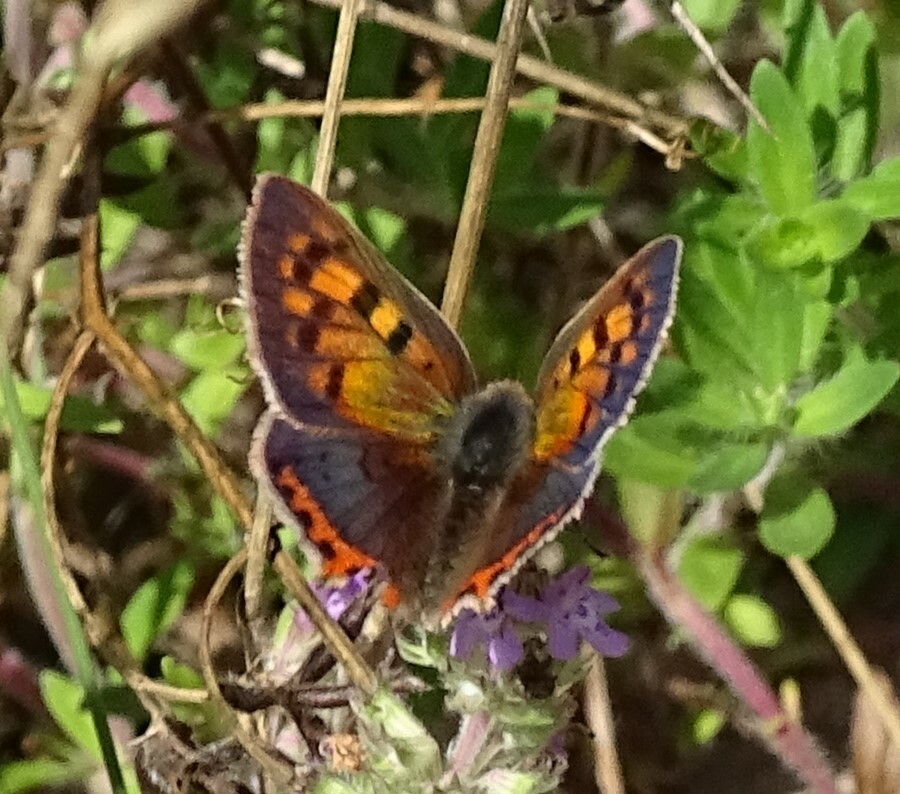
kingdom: Animalia
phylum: Arthropoda
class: Insecta
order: Lepidoptera
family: Lycaenidae
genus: Lycaena
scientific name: Lycaena phlaeas
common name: Small copper
